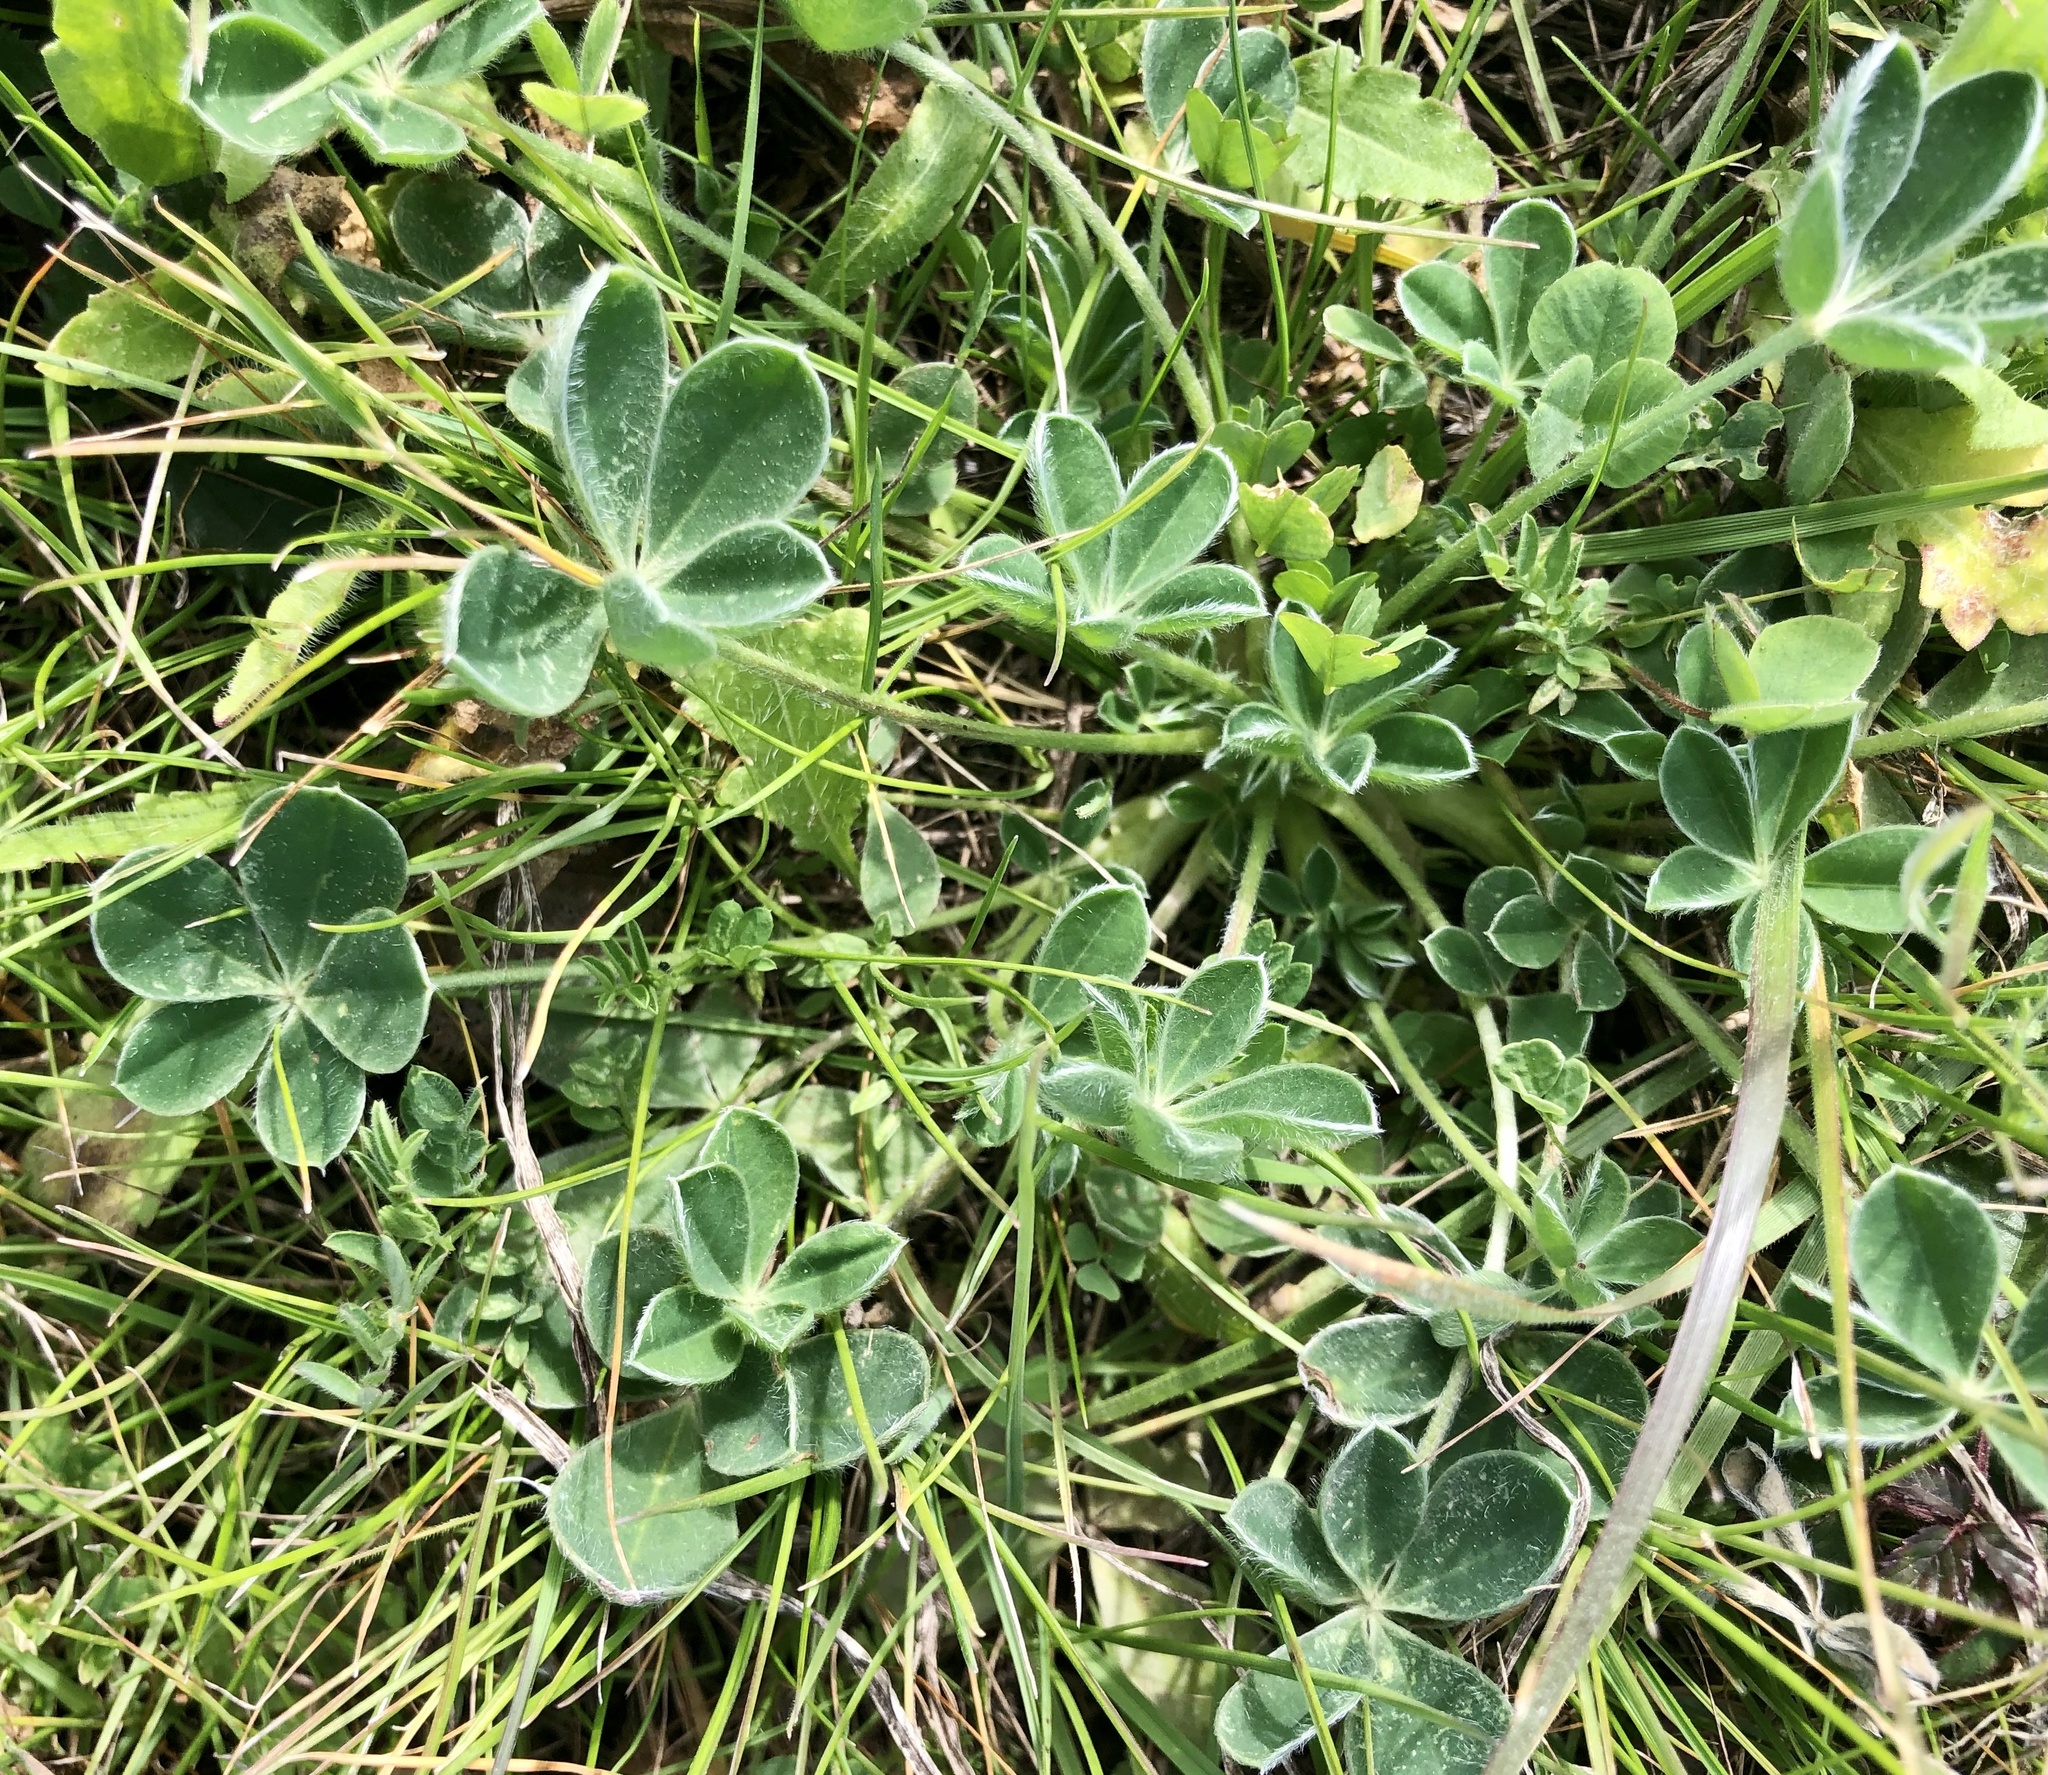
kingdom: Plantae
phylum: Tracheophyta
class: Magnoliopsida
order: Fabales
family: Fabaceae
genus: Lupinus
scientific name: Lupinus texensis
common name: Texas bluebonnet
